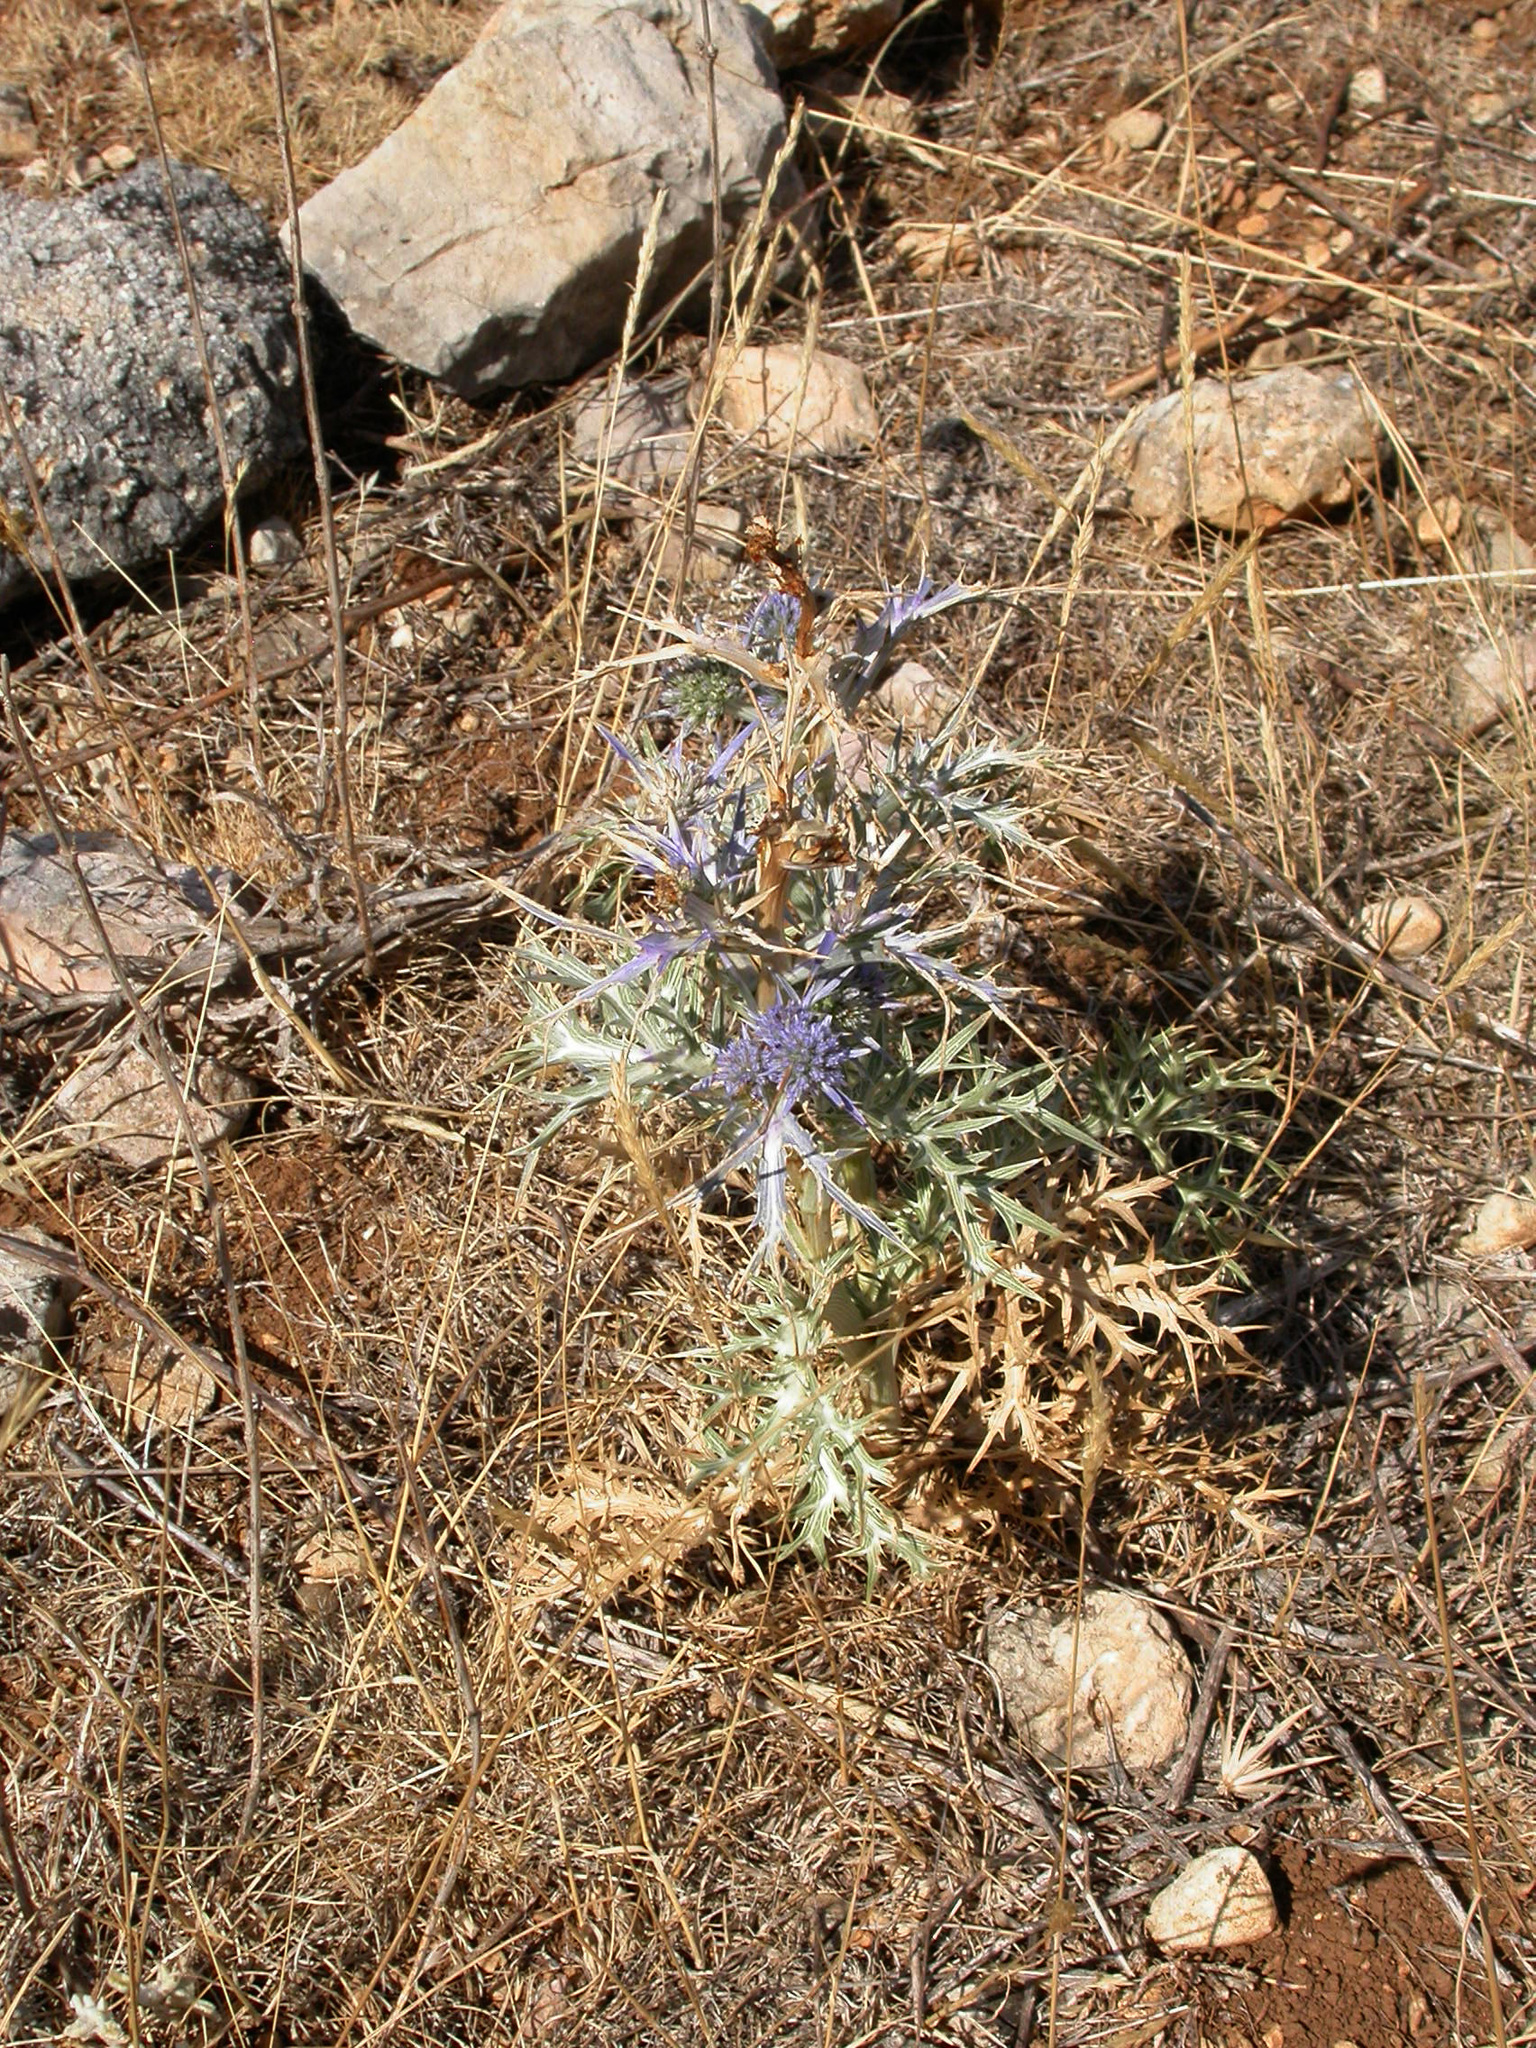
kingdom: Plantae
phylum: Tracheophyta
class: Magnoliopsida
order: Apiales
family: Apiaceae
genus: Eryngium
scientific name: Eryngium amethystinum
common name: Amethyst eryngo
